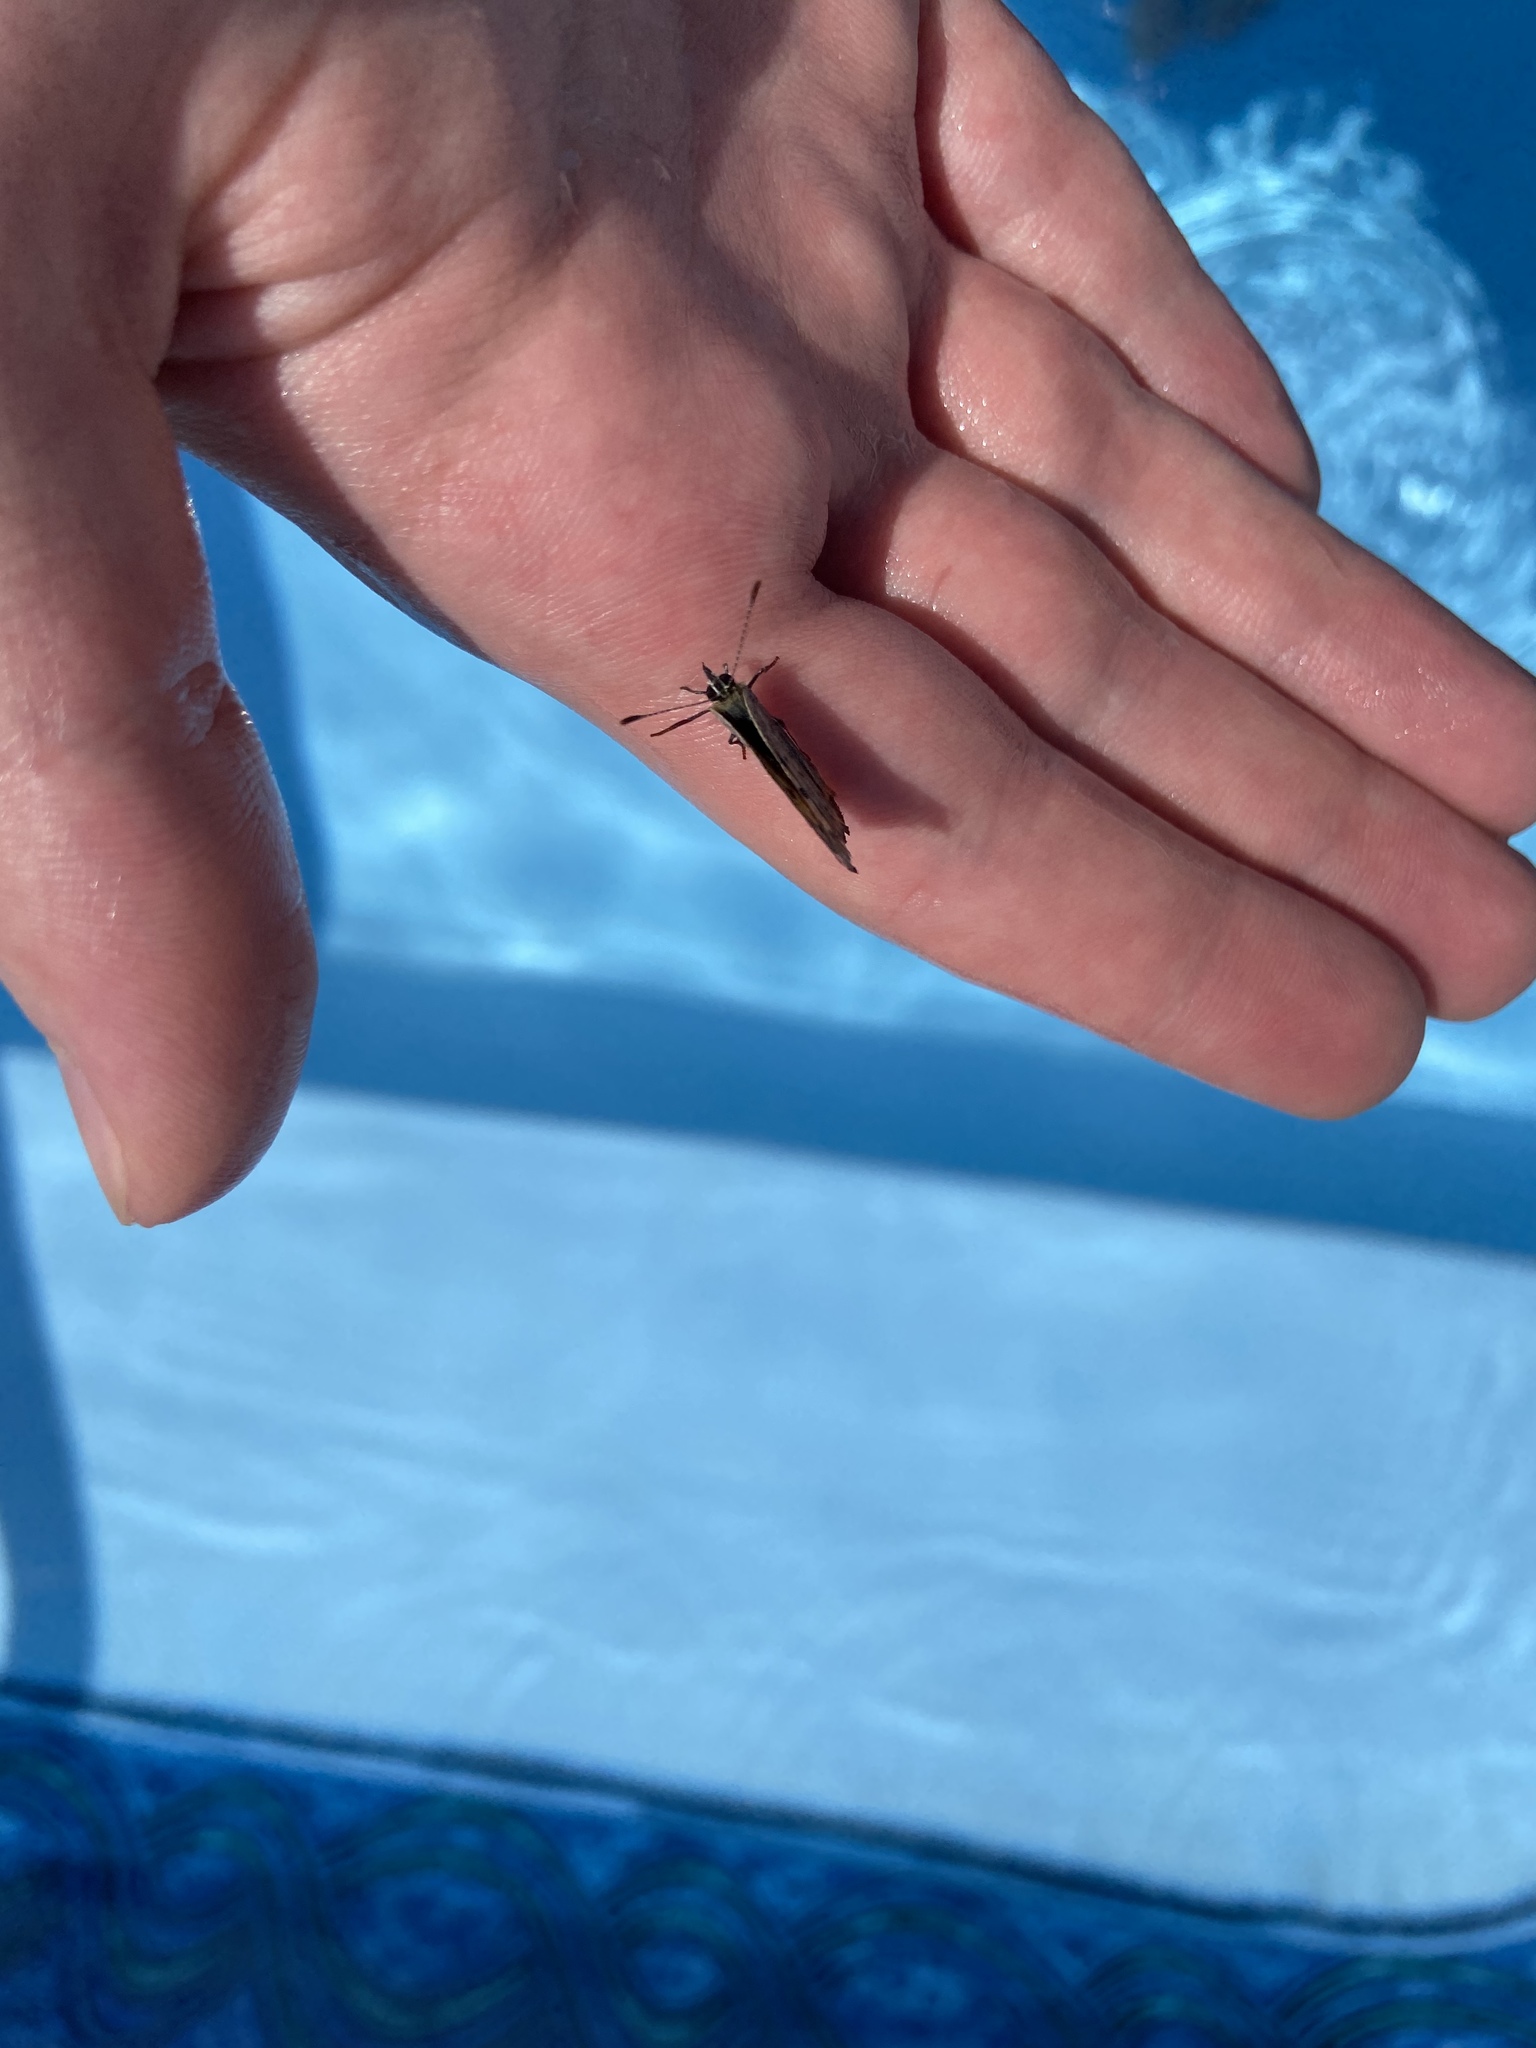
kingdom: Animalia
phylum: Arthropoda
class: Insecta
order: Lepidoptera
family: Lycaenidae
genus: Lycaena
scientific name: Lycaena hypophlaeas
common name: American copper
